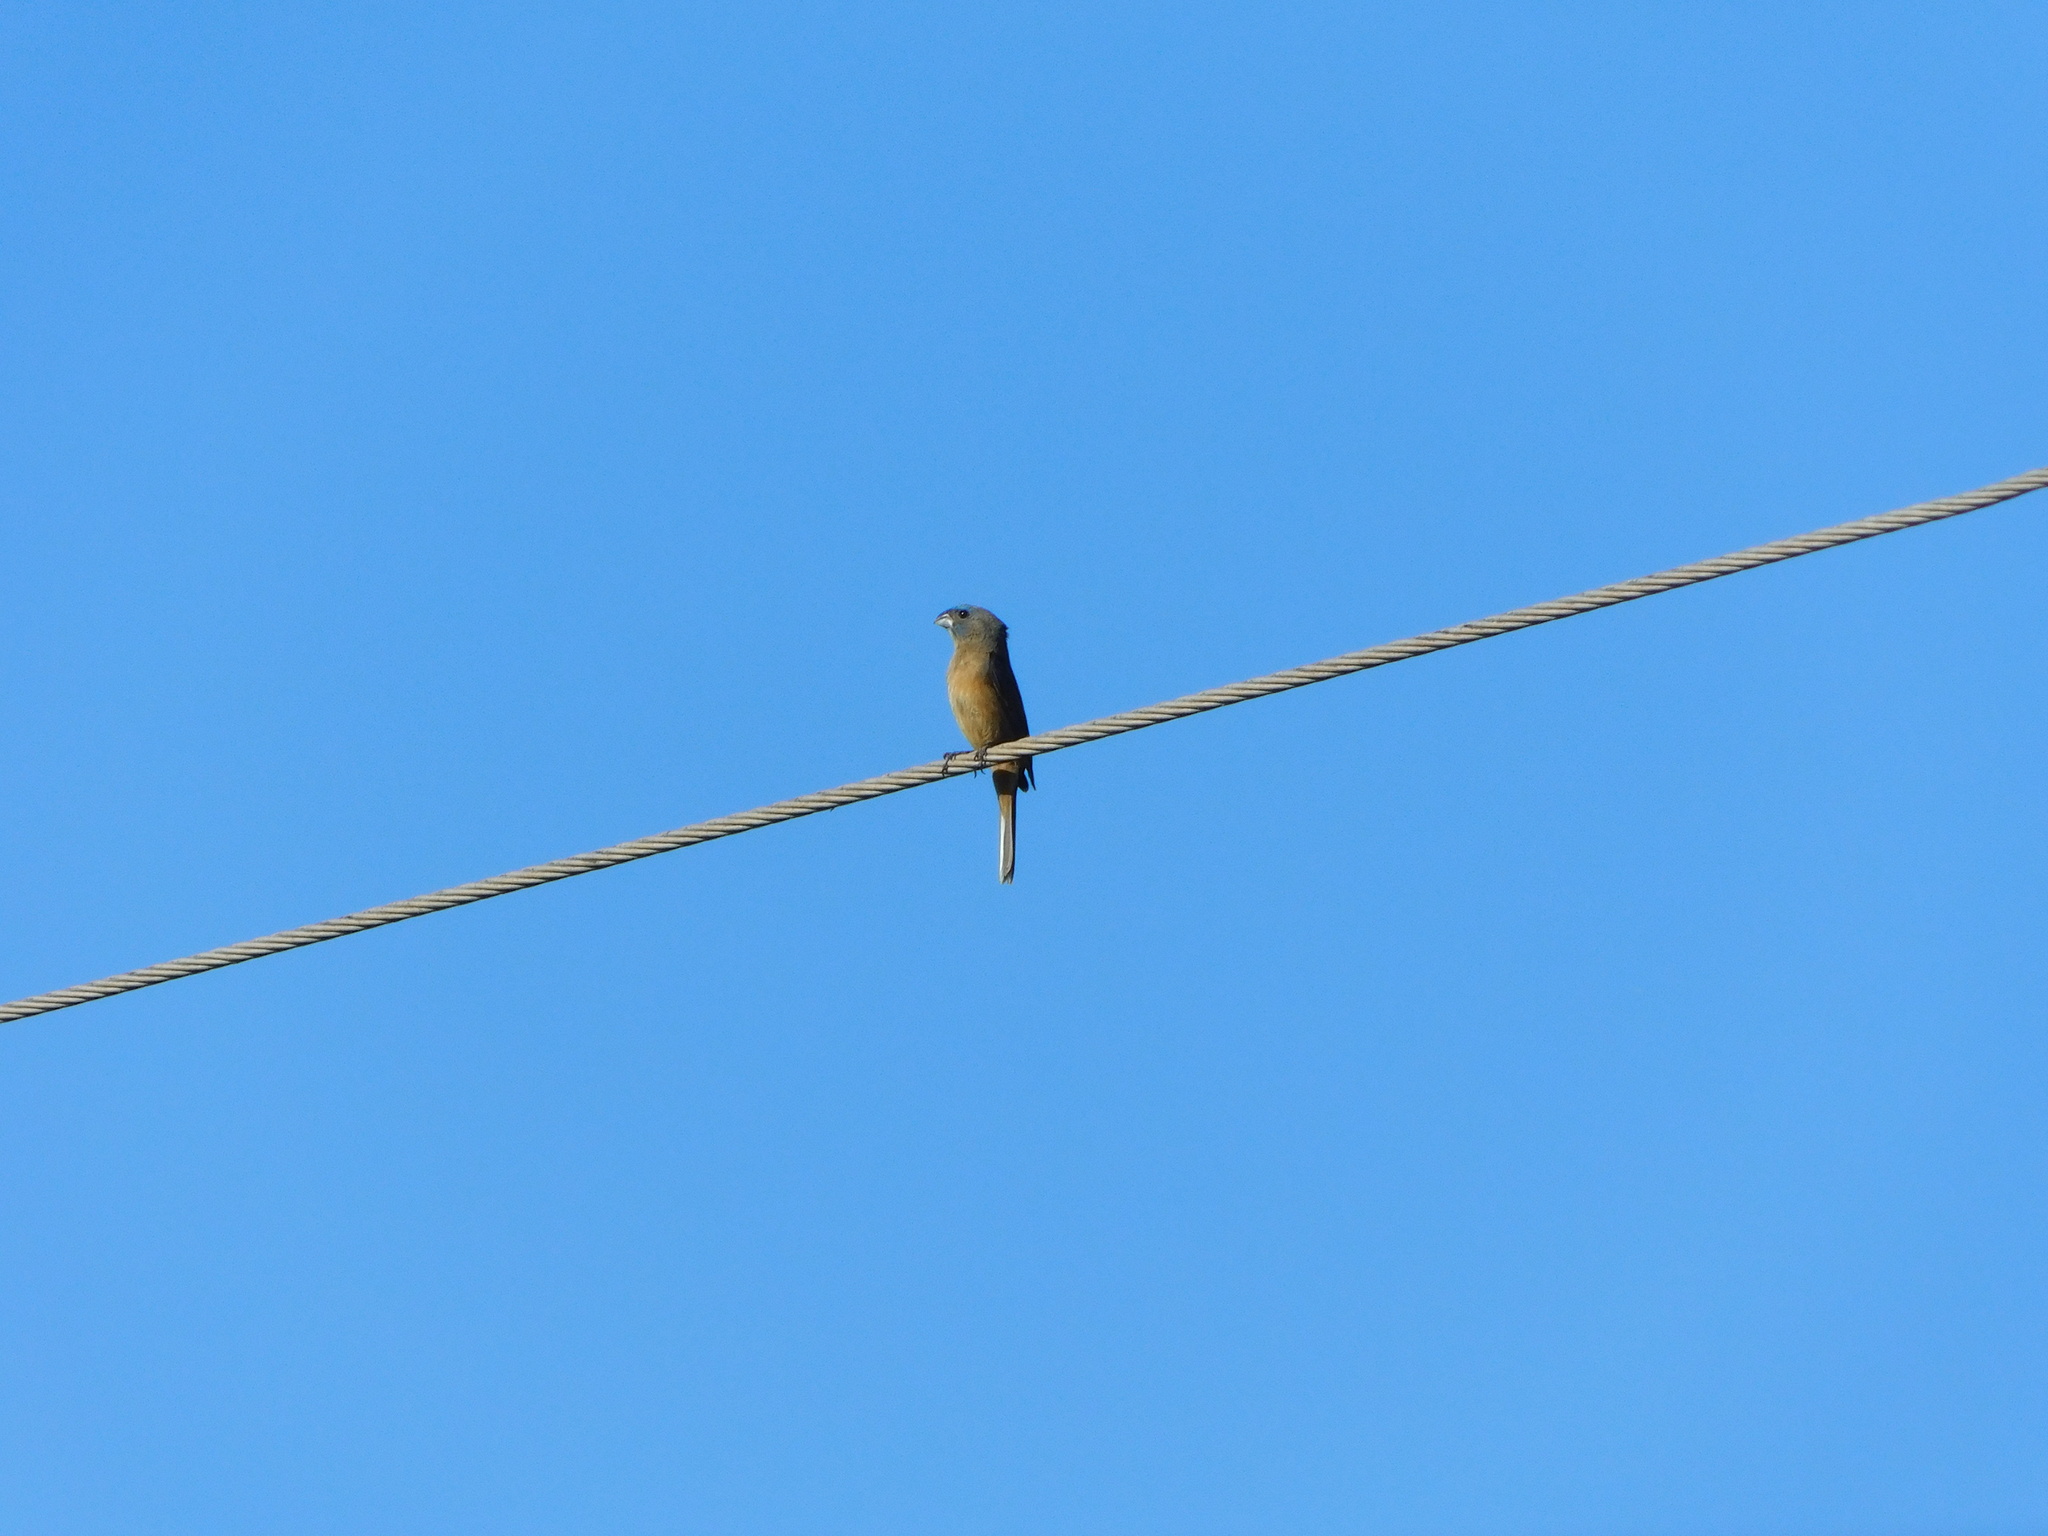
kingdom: Animalia
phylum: Chordata
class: Aves
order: Passeriformes
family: Cardinalidae
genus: Cyanoloxia
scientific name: Cyanoloxia glaucocaerulea
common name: Glaucous-blue grosbeak
